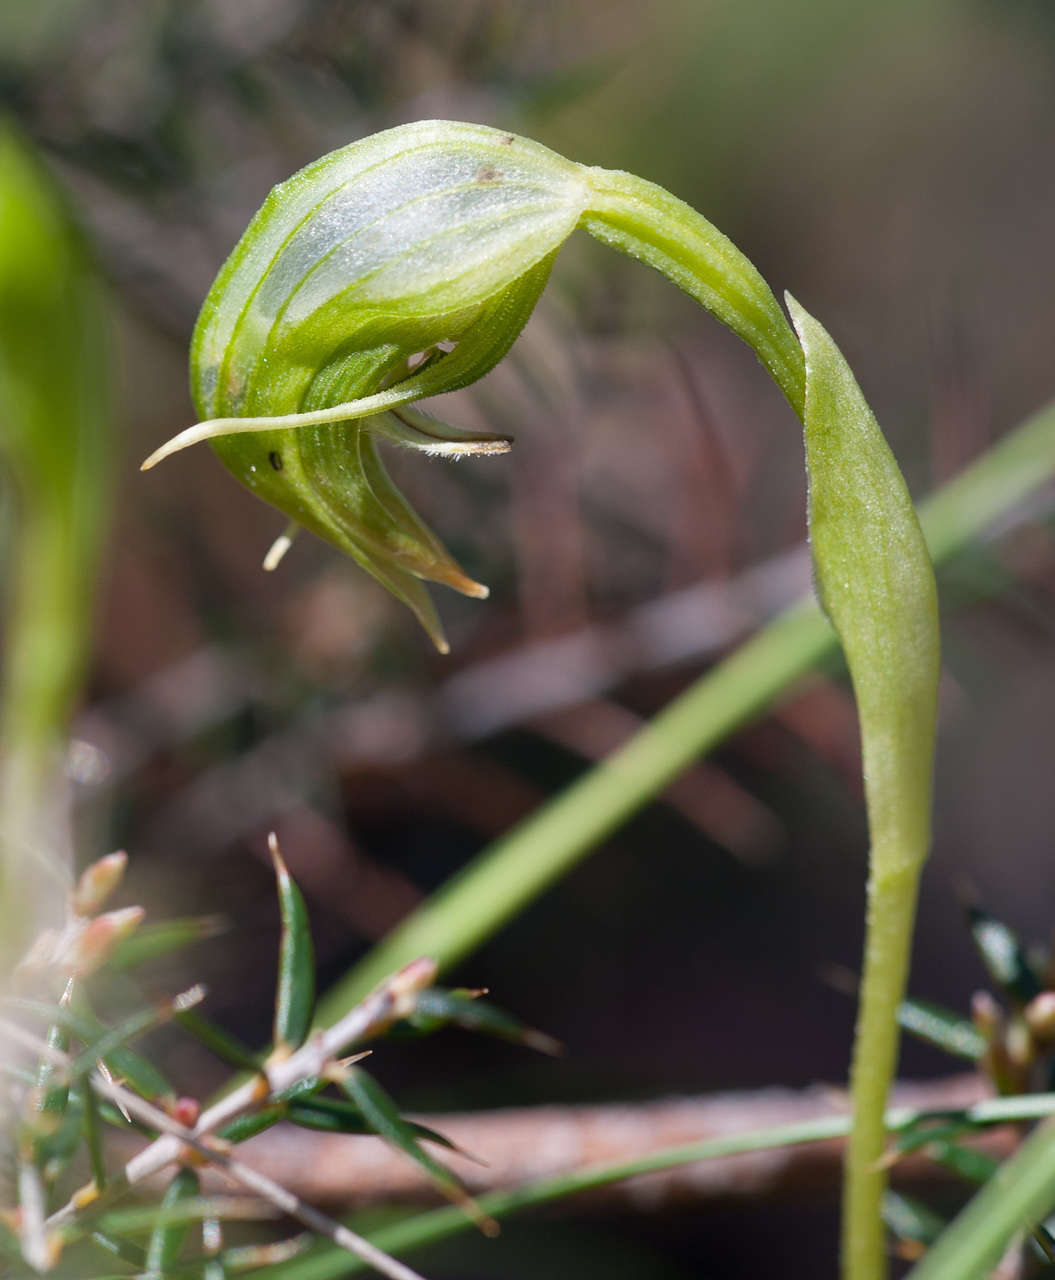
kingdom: Plantae
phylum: Tracheophyta
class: Liliopsida
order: Asparagales
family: Orchidaceae
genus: Pterostylis
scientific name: Pterostylis nutans
